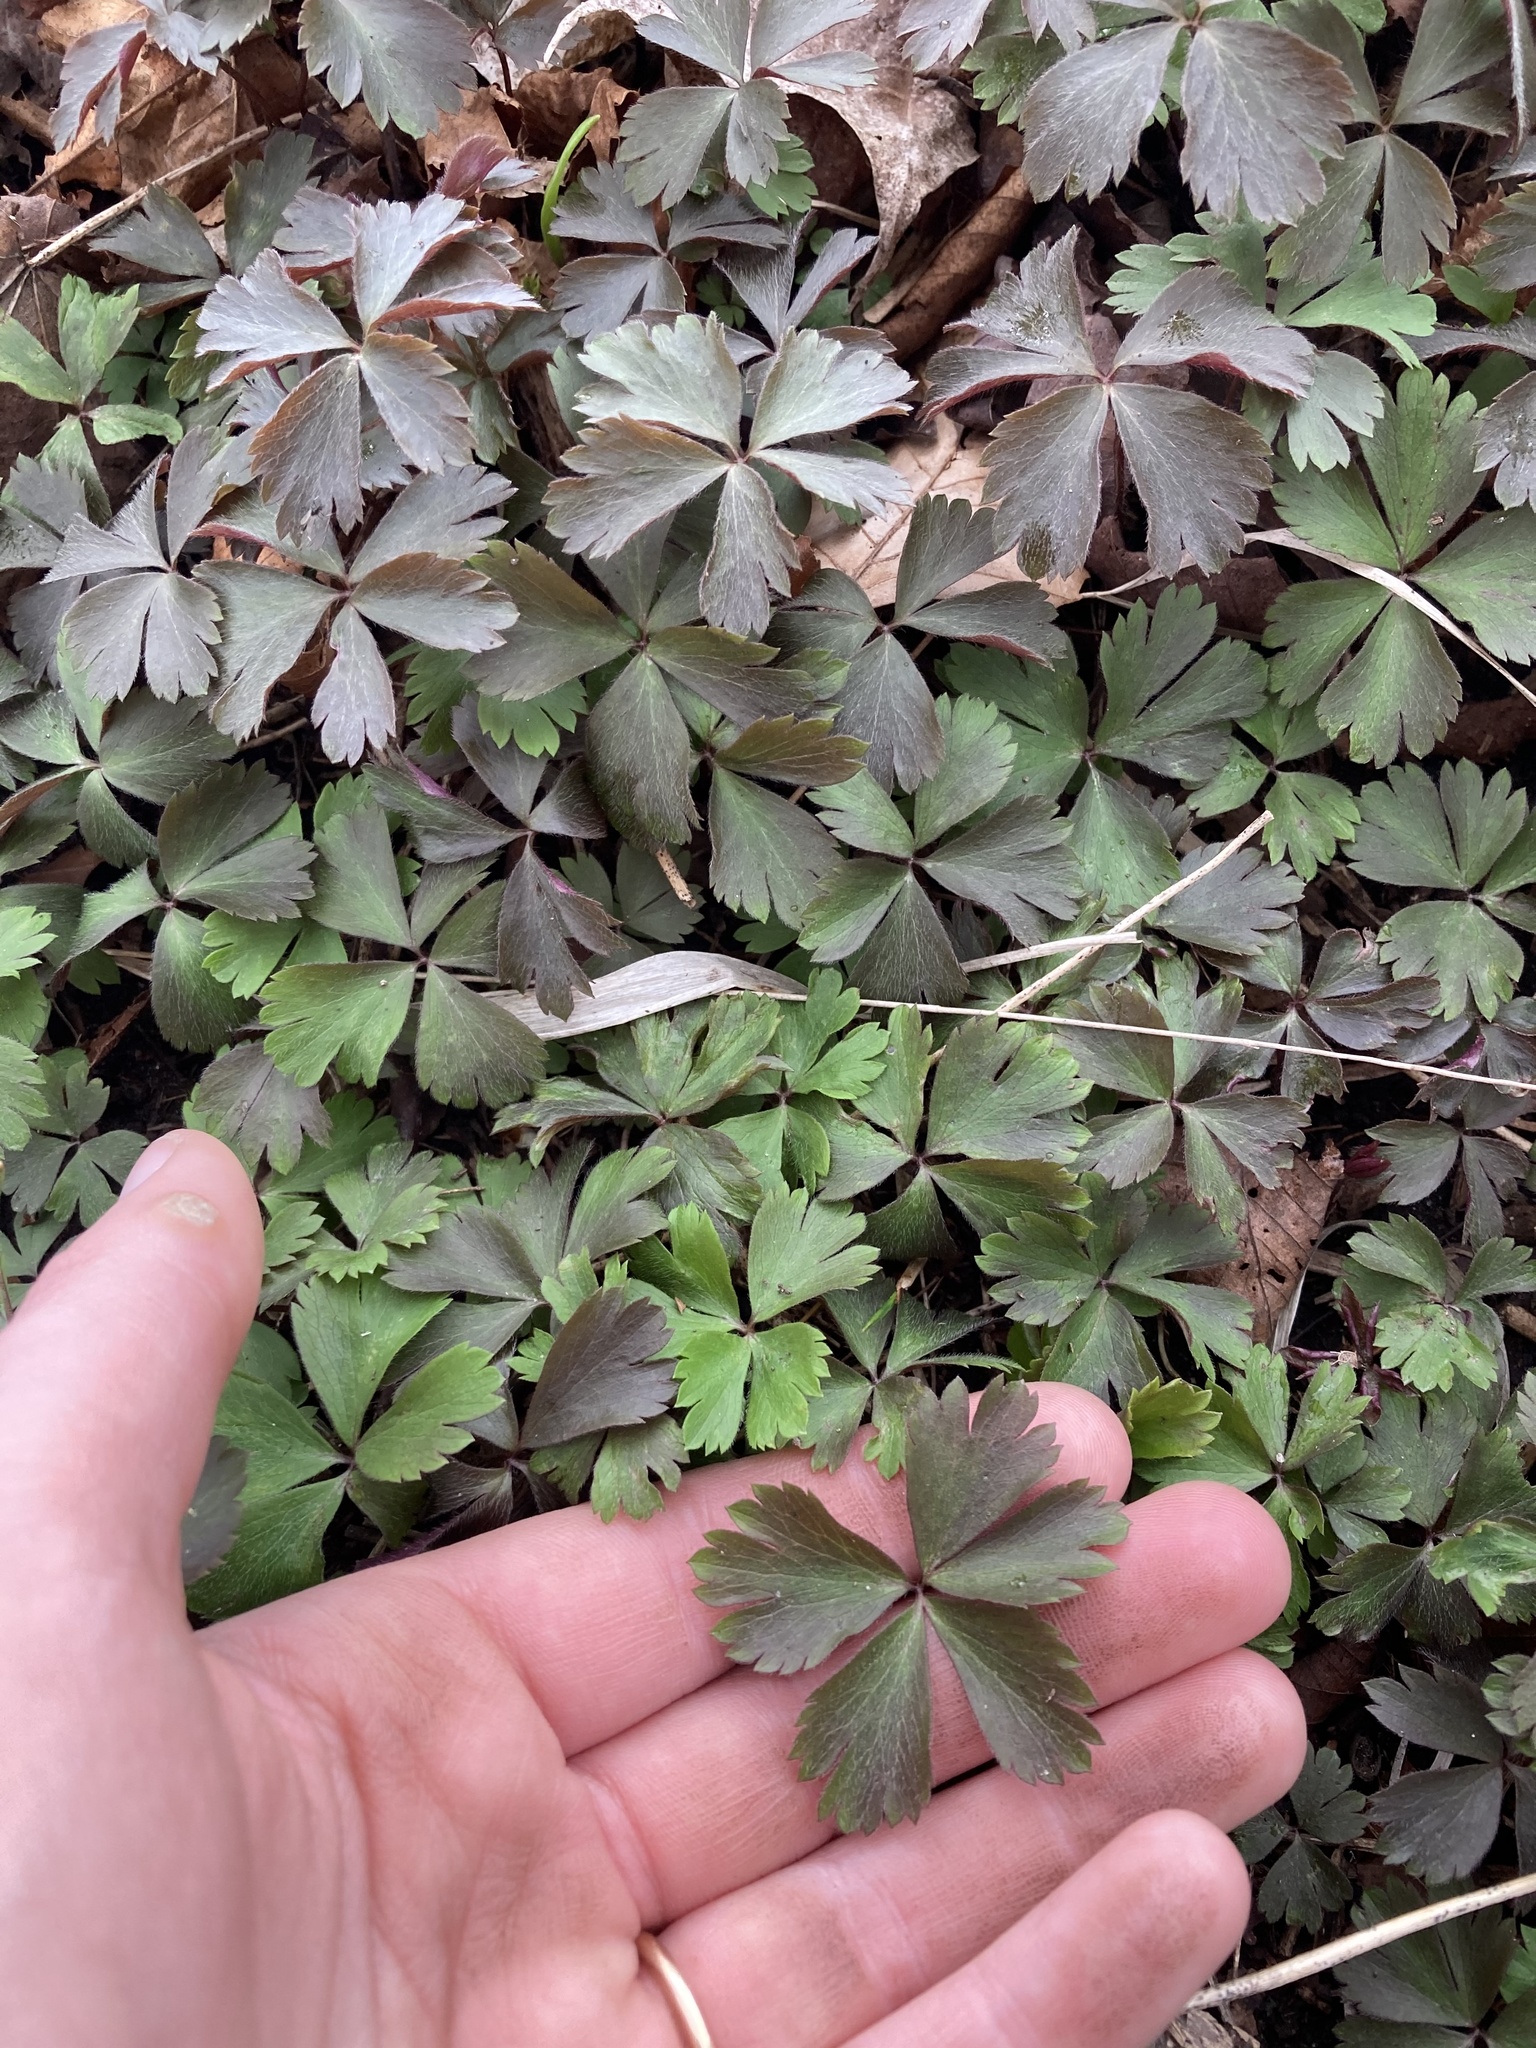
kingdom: Plantae
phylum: Tracheophyta
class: Magnoliopsida
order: Ranunculales
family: Ranunculaceae
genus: Anemone
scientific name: Anemone quinquefolia
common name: Wood anemone
